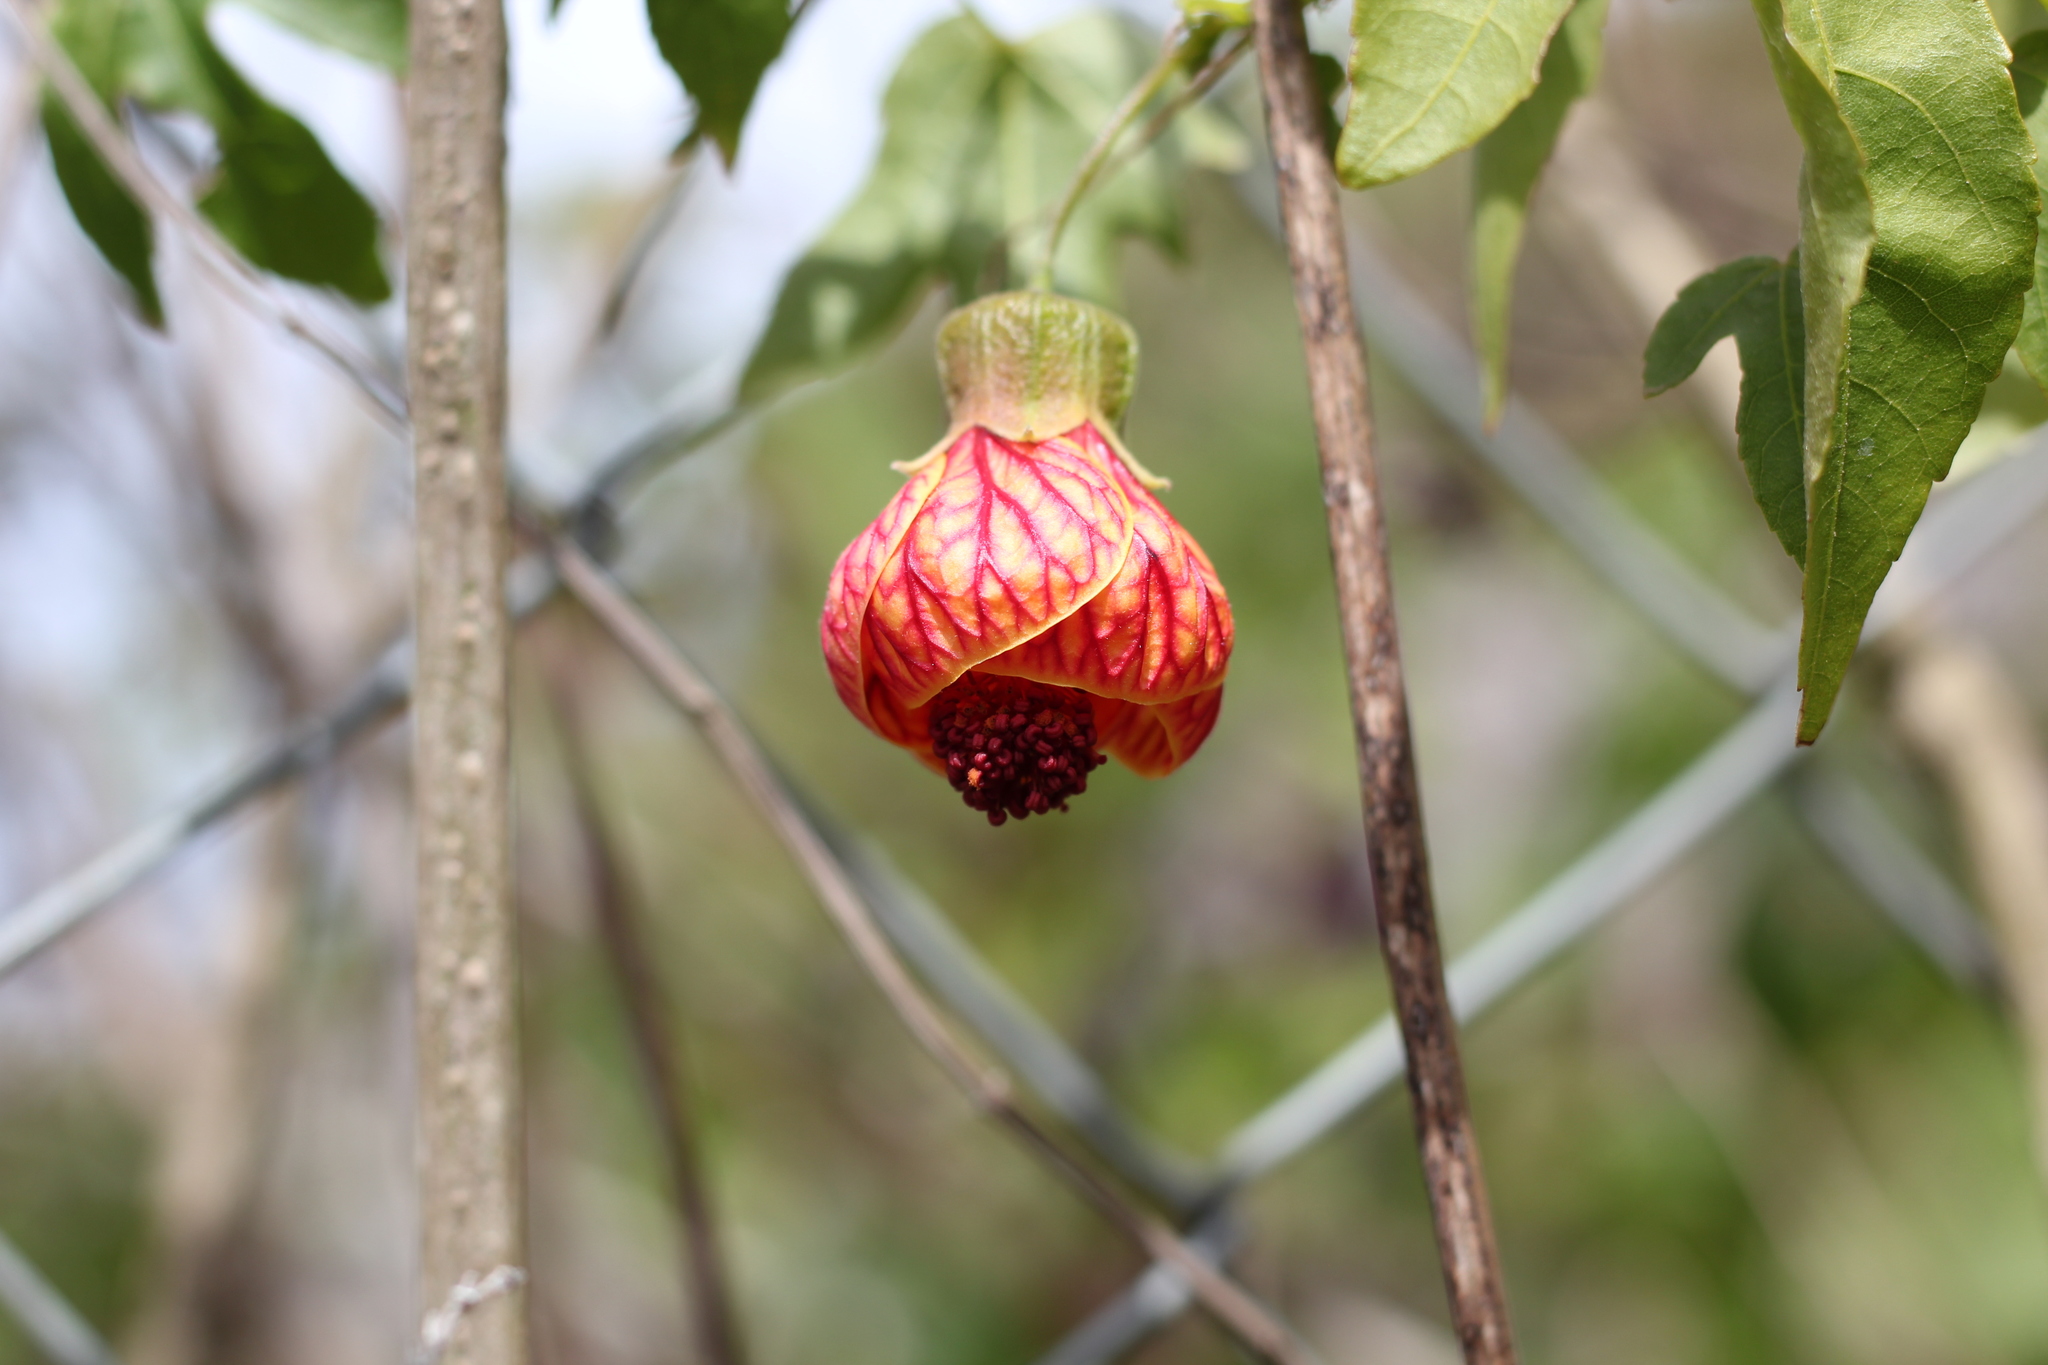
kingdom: Plantae
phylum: Tracheophyta
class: Magnoliopsida
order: Malvales
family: Malvaceae
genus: Callianthe
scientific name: Callianthe picta
